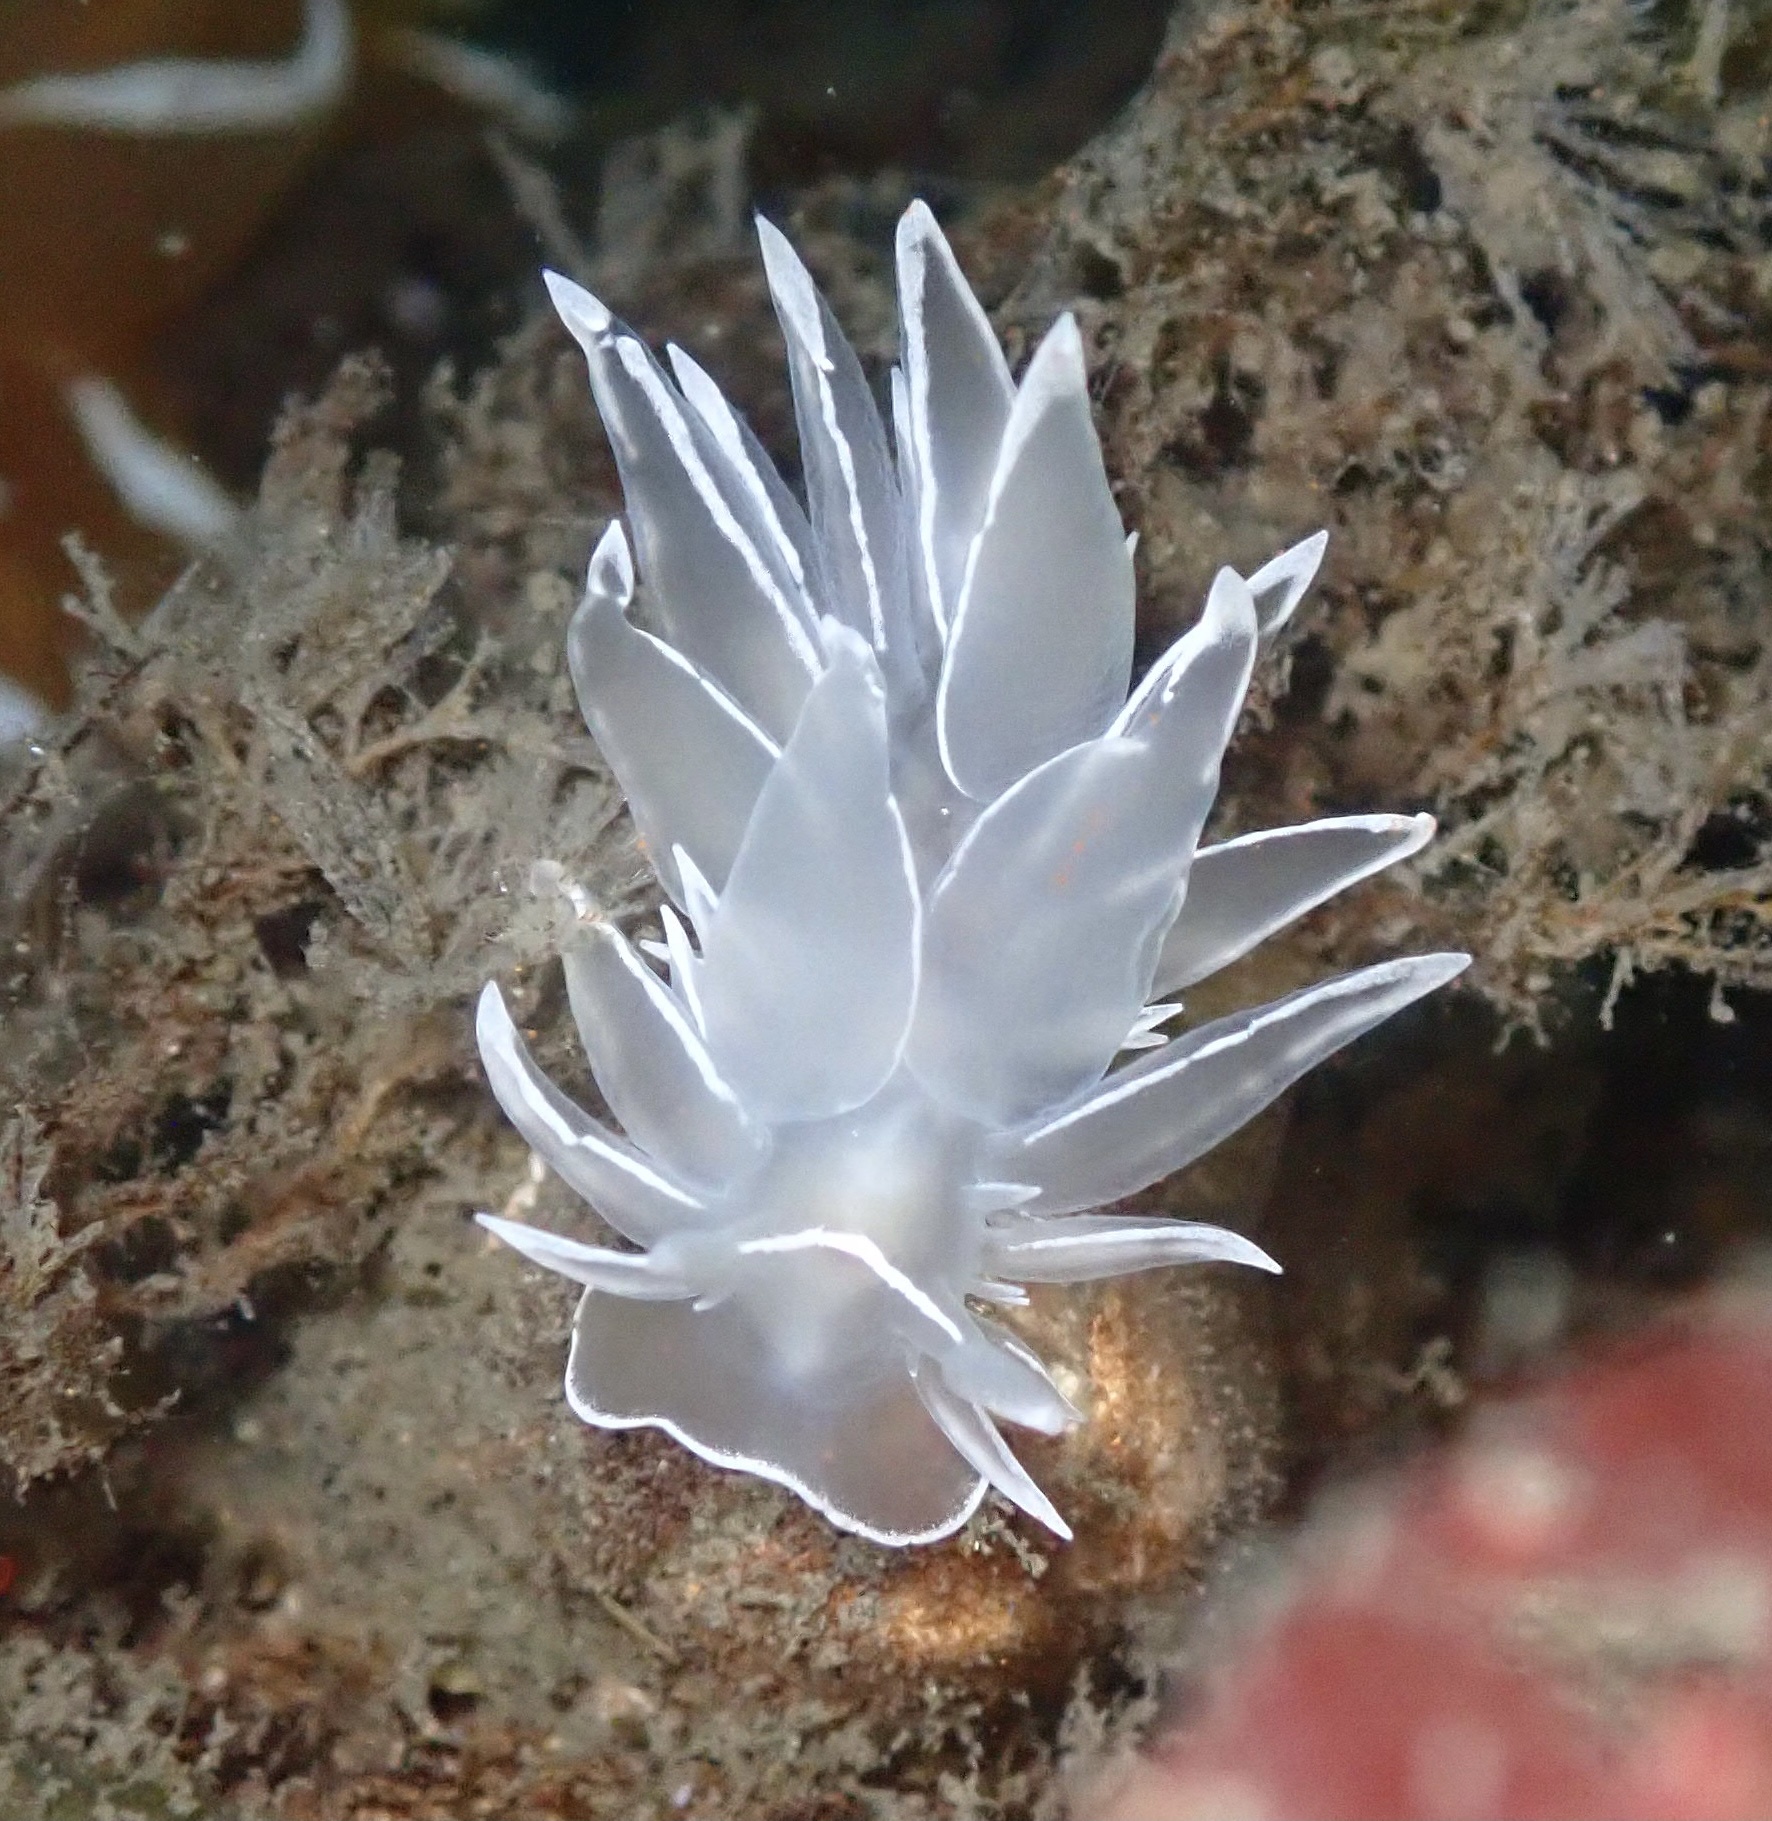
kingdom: Animalia
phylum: Mollusca
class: Gastropoda
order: Nudibranchia
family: Dironidae
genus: Dirona
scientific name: Dirona albolineata
